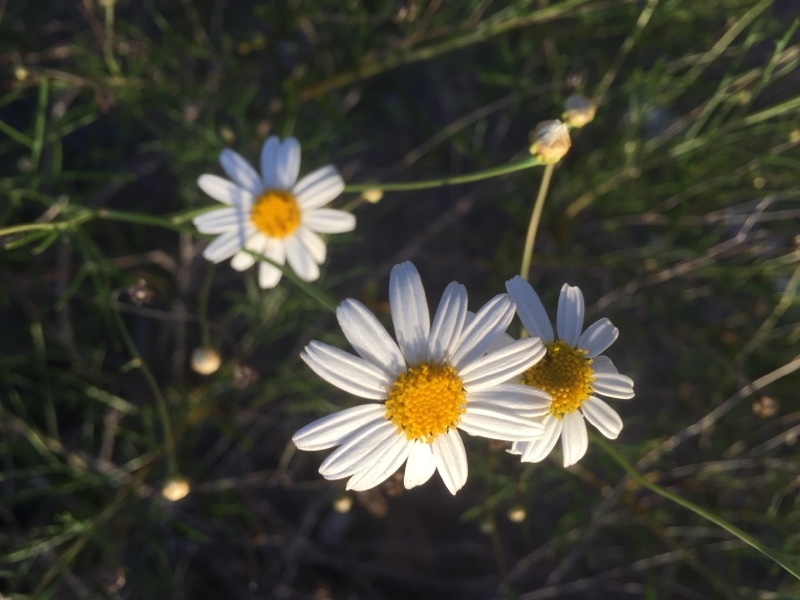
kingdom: Plantae
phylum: Tracheophyta
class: Magnoliopsida
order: Asterales
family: Asteraceae
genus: Argyranthemum
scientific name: Argyranthemum frutescens
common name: Paris daisy
